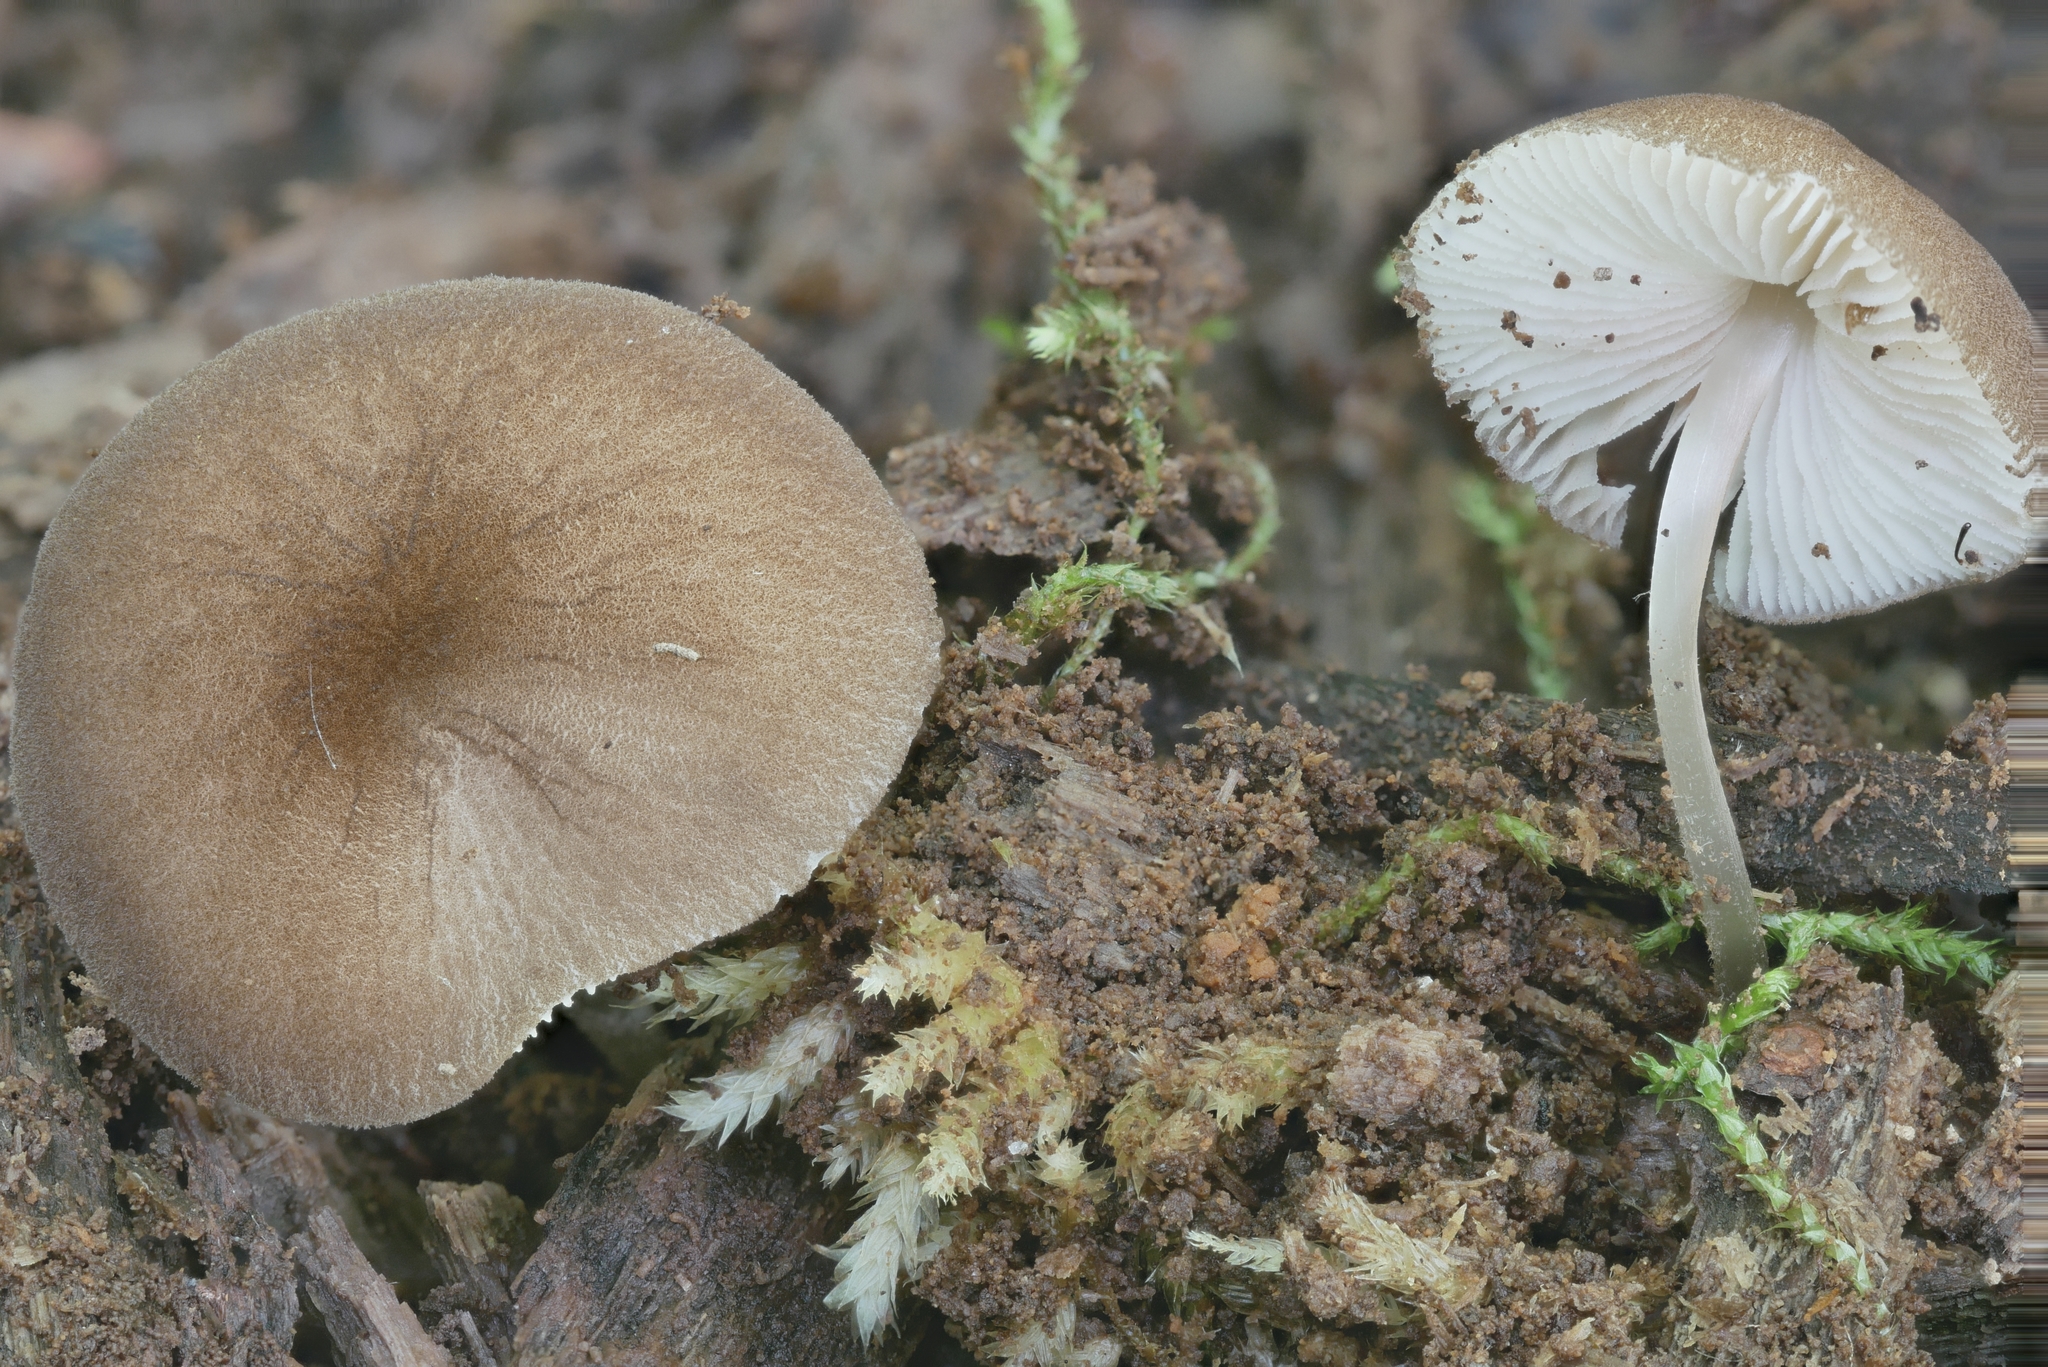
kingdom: Fungi
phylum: Basidiomycota
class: Agaricomycetes
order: Agaricales
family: Pluteaceae
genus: Pluteus
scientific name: Pluteus podospileus
